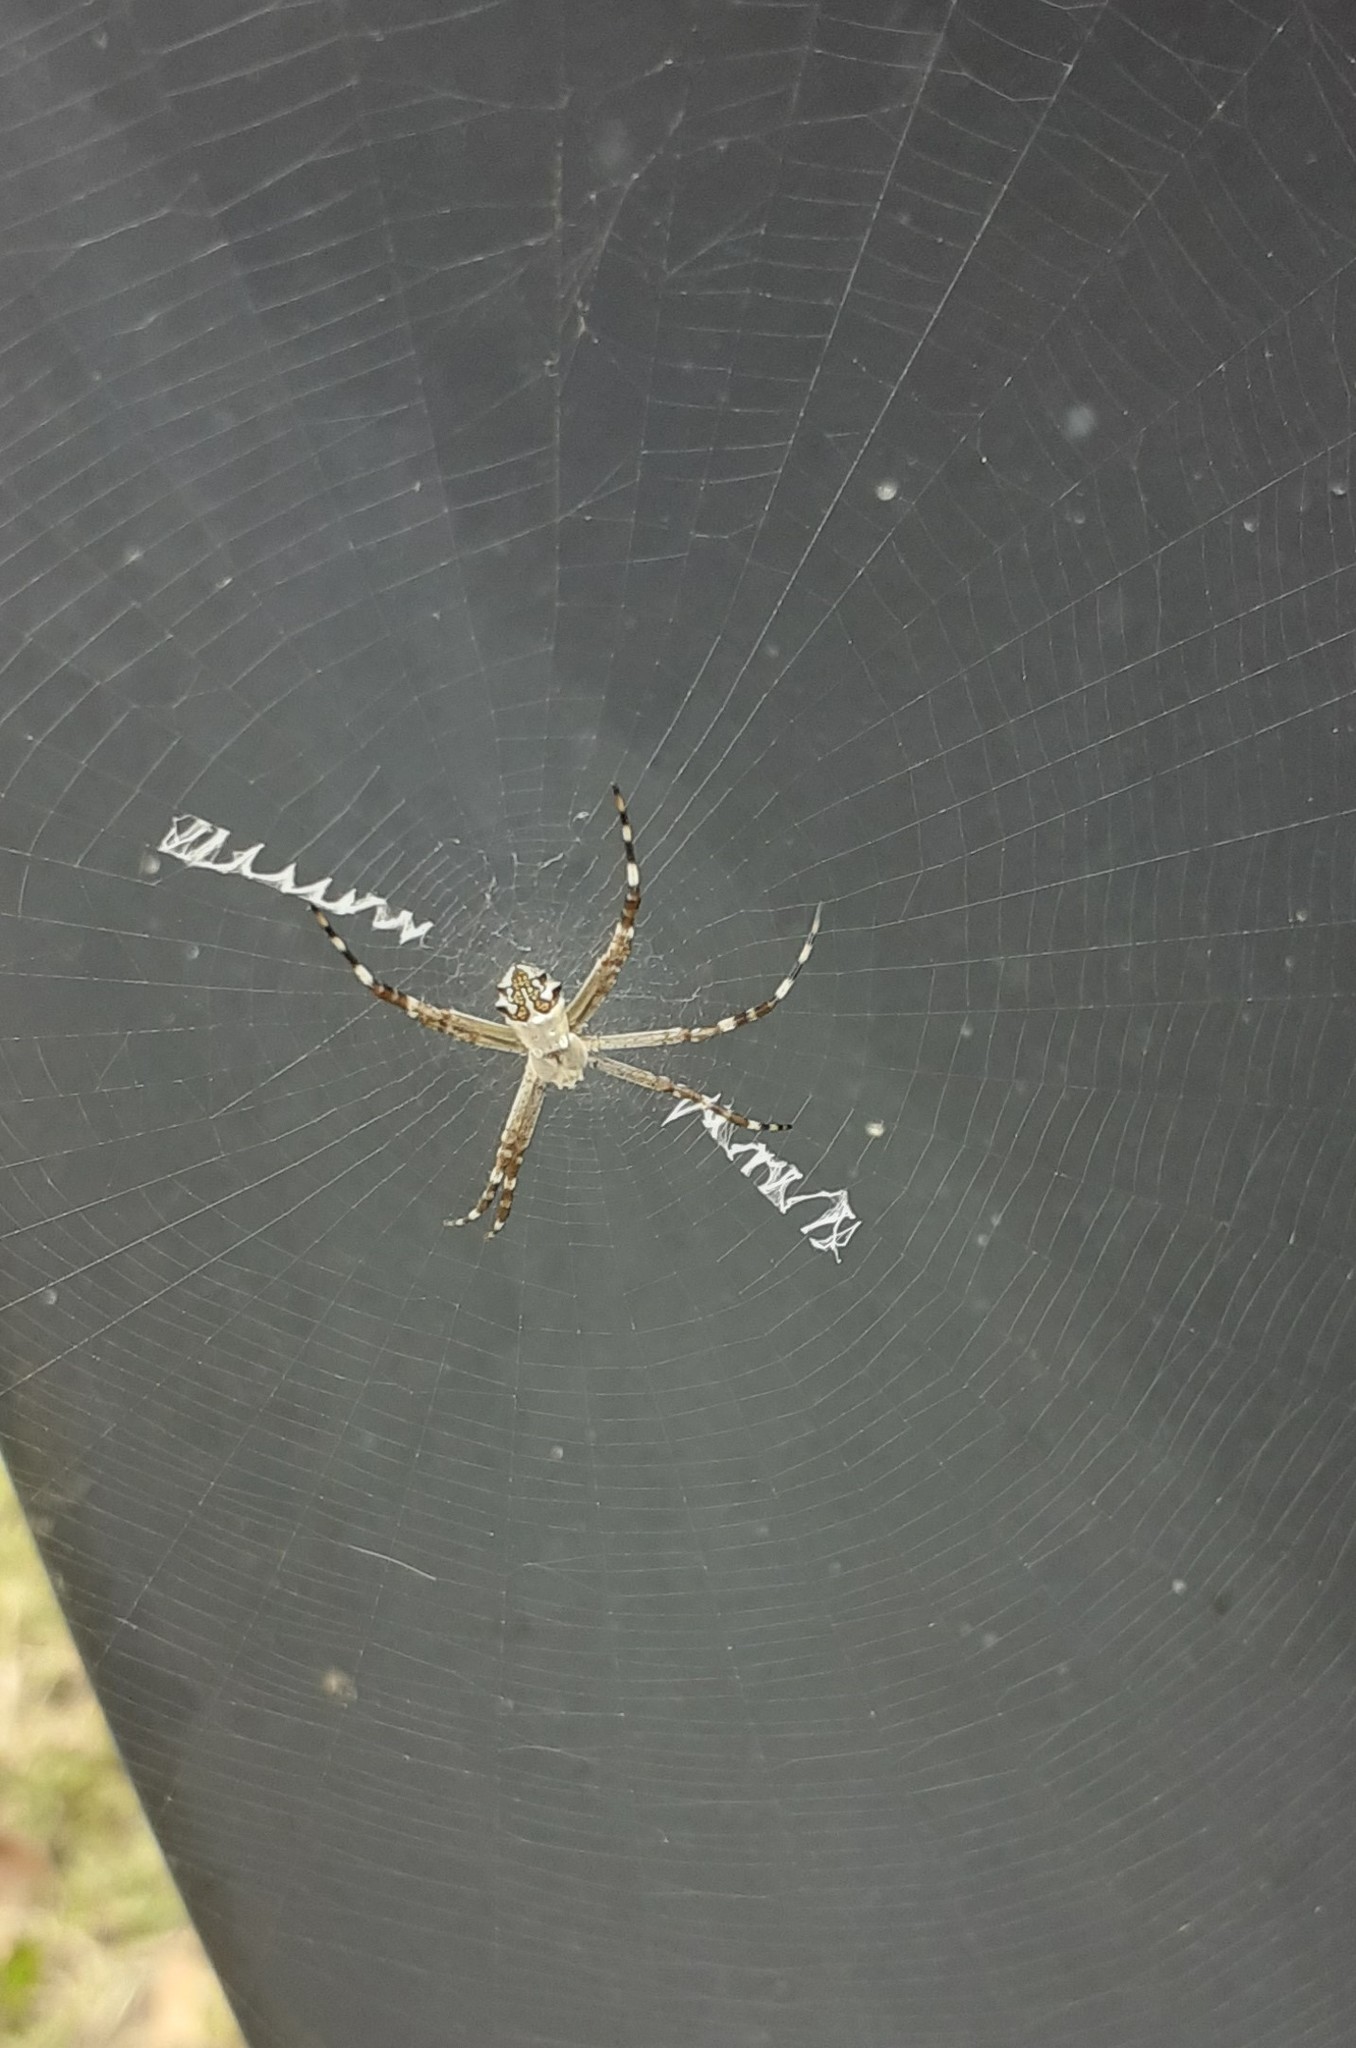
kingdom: Animalia
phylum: Arthropoda
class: Arachnida
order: Araneae
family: Araneidae
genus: Argiope
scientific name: Argiope argentata
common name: Orb weavers
